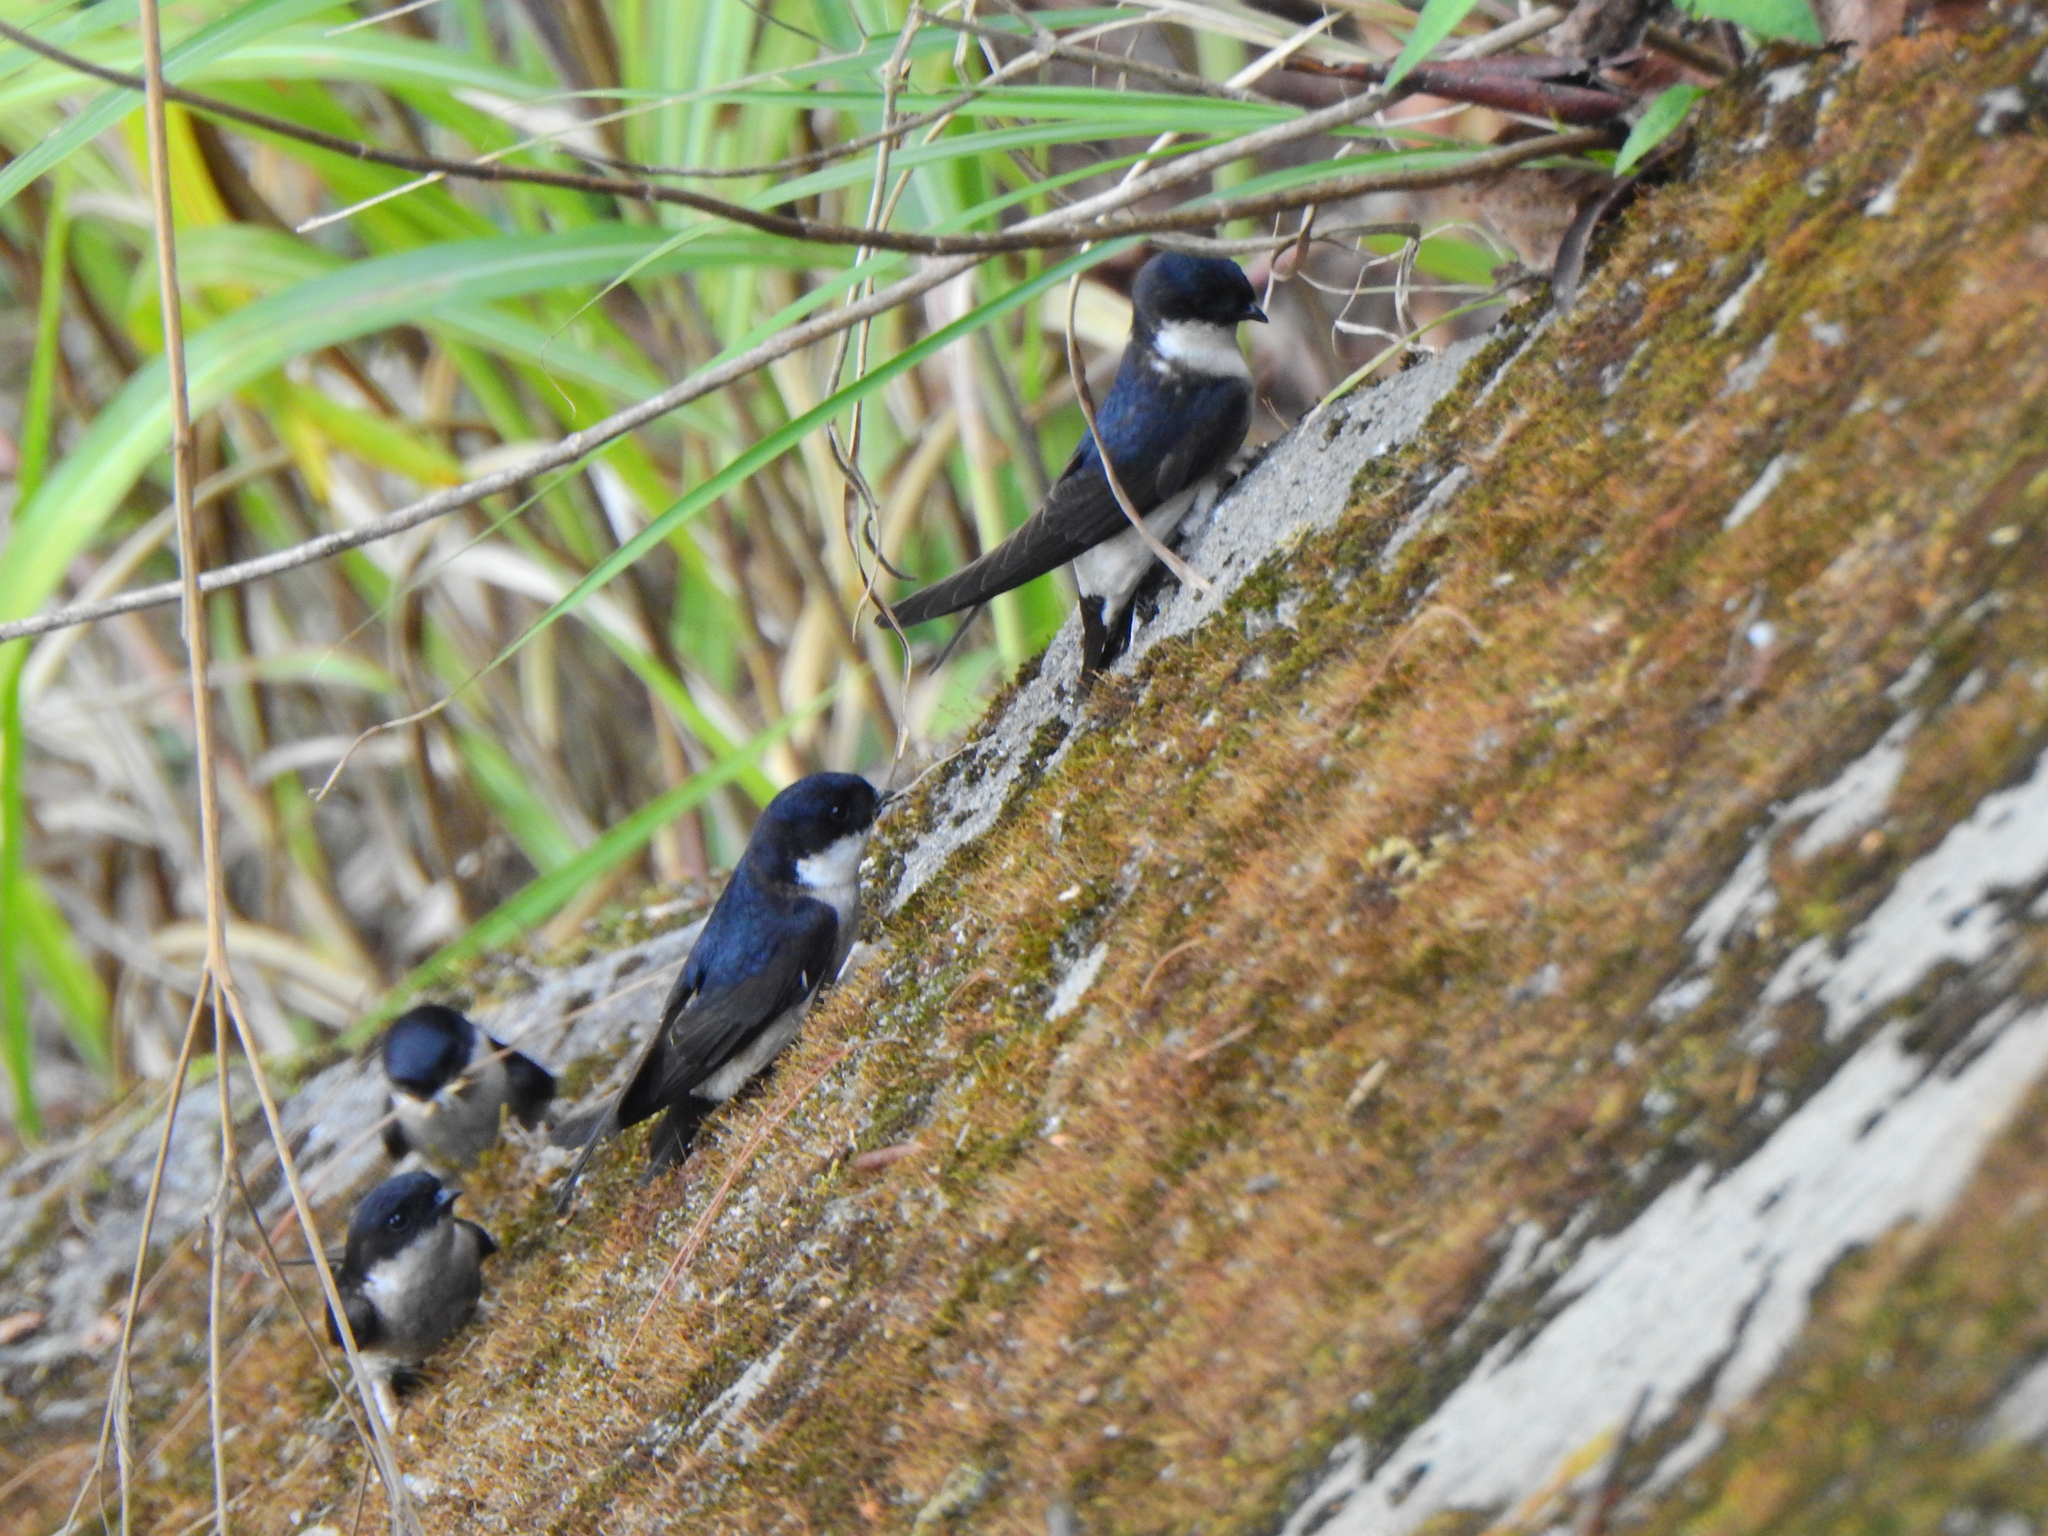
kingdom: Animalia
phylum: Chordata
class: Aves
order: Passeriformes
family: Hirundinidae
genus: Delichon
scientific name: Delichon dasypus
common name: Asian house martin
